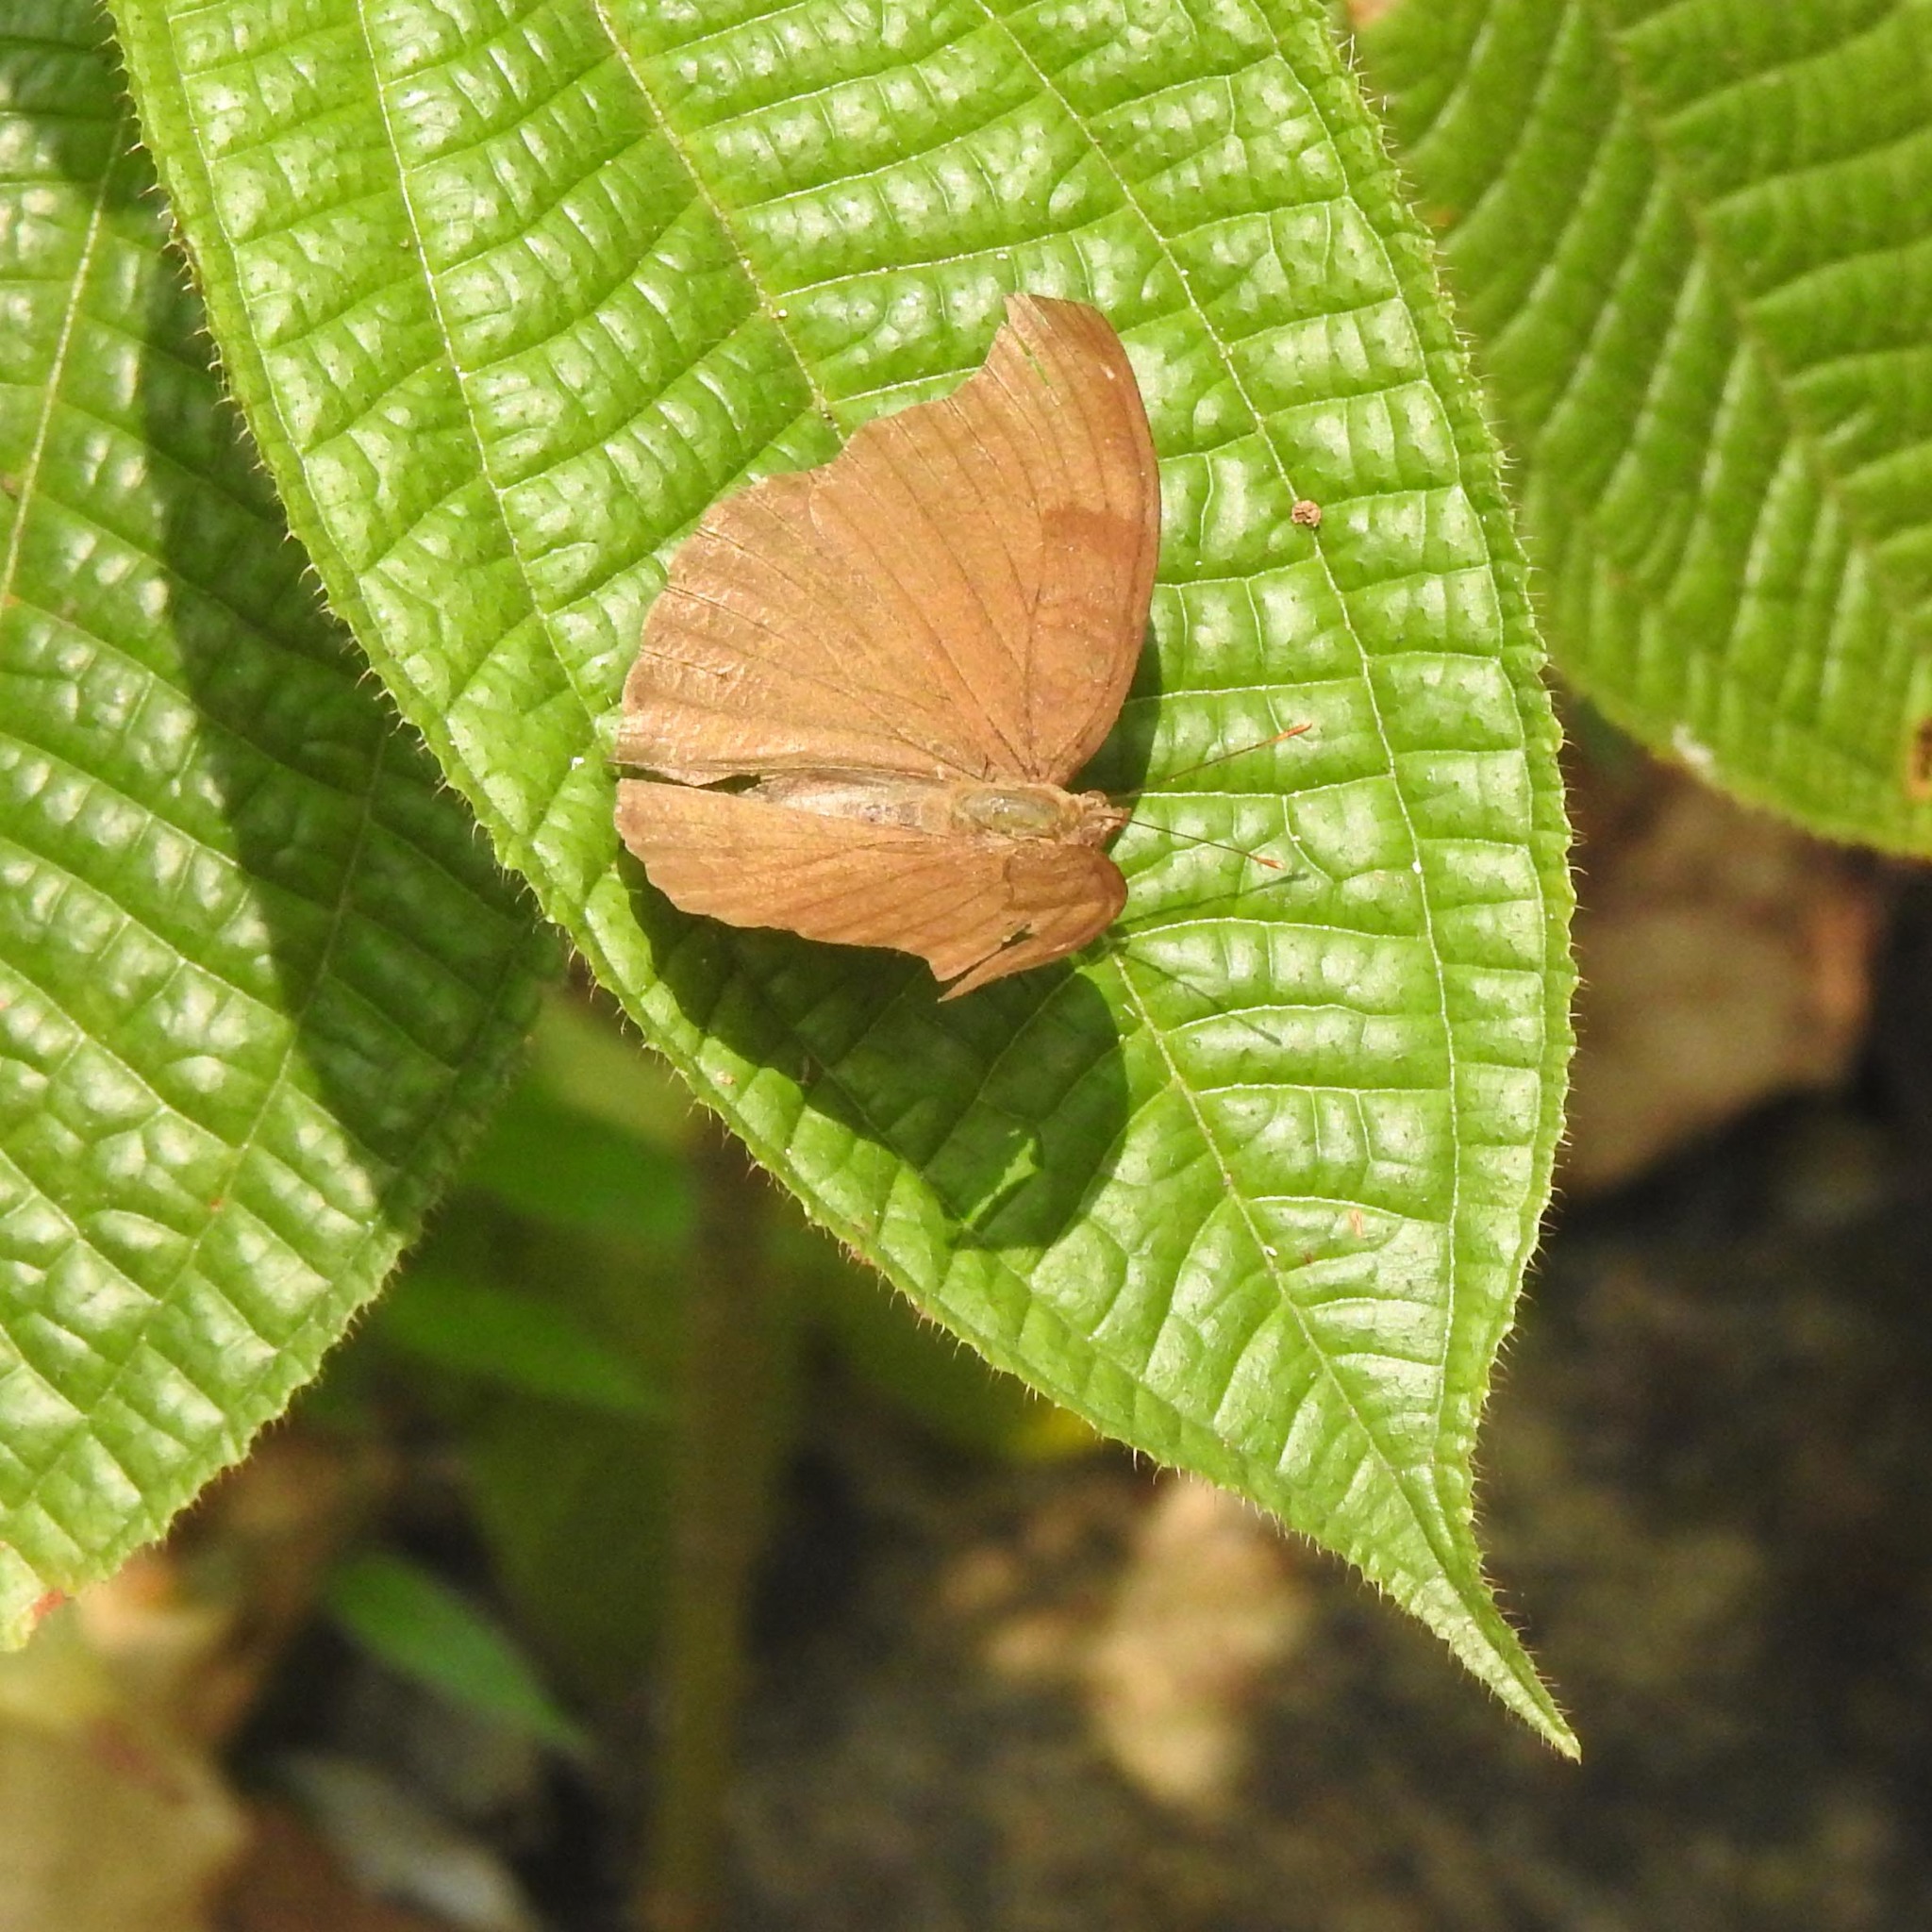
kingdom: Animalia
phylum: Arthropoda
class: Insecta
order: Lepidoptera
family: Nymphalidae
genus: Junonia
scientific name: Junonia iphita
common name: Chocolate pansy
